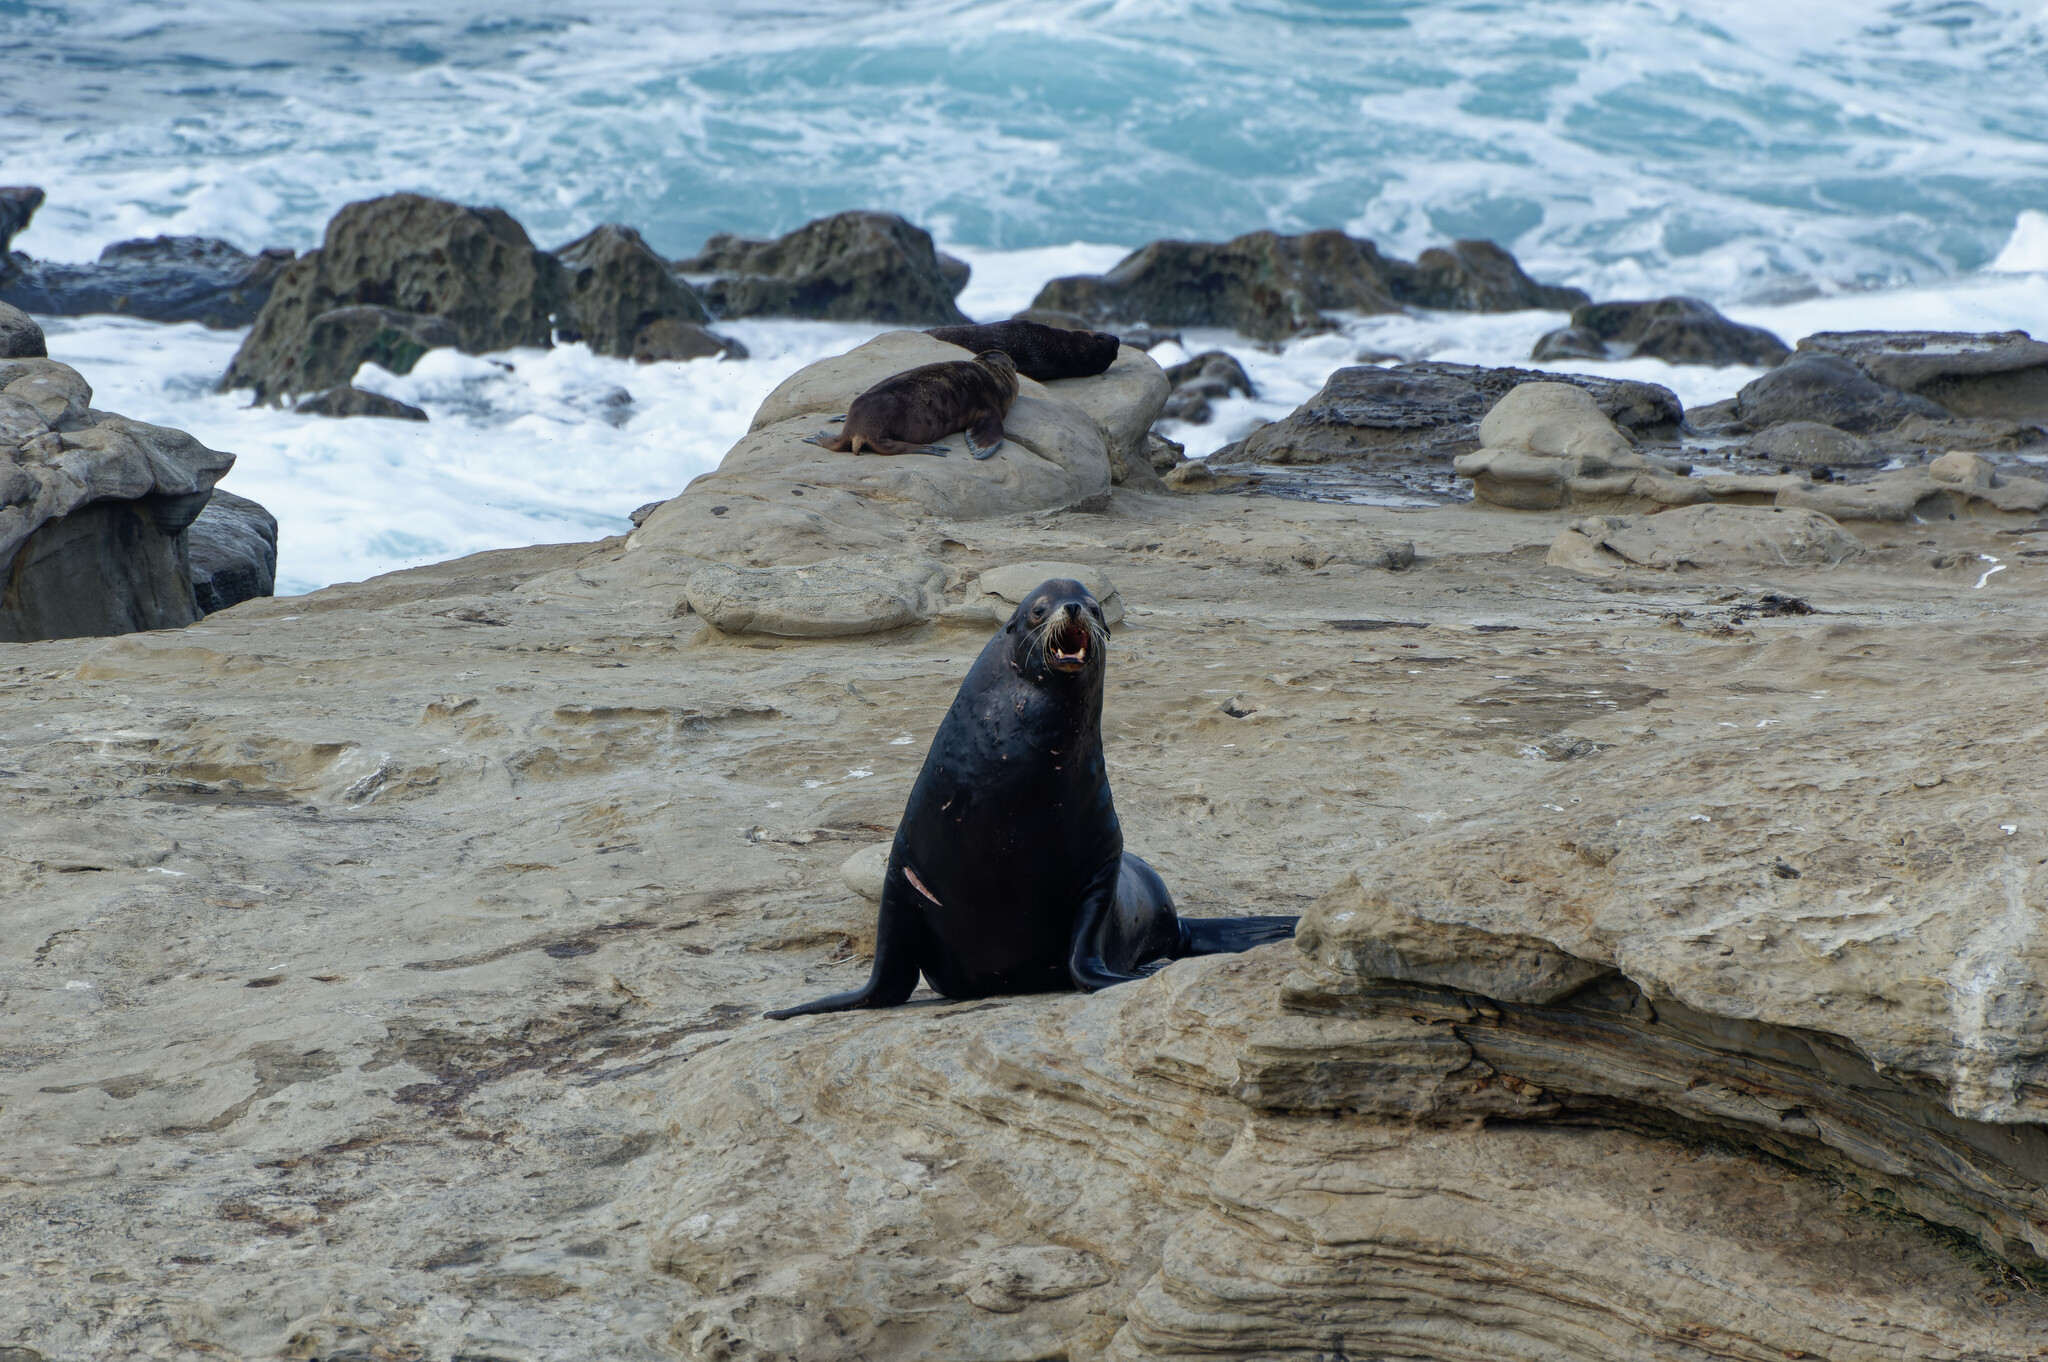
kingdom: Animalia
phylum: Chordata
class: Mammalia
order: Carnivora
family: Otariidae
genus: Zalophus
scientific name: Zalophus californianus
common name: California sea lion
